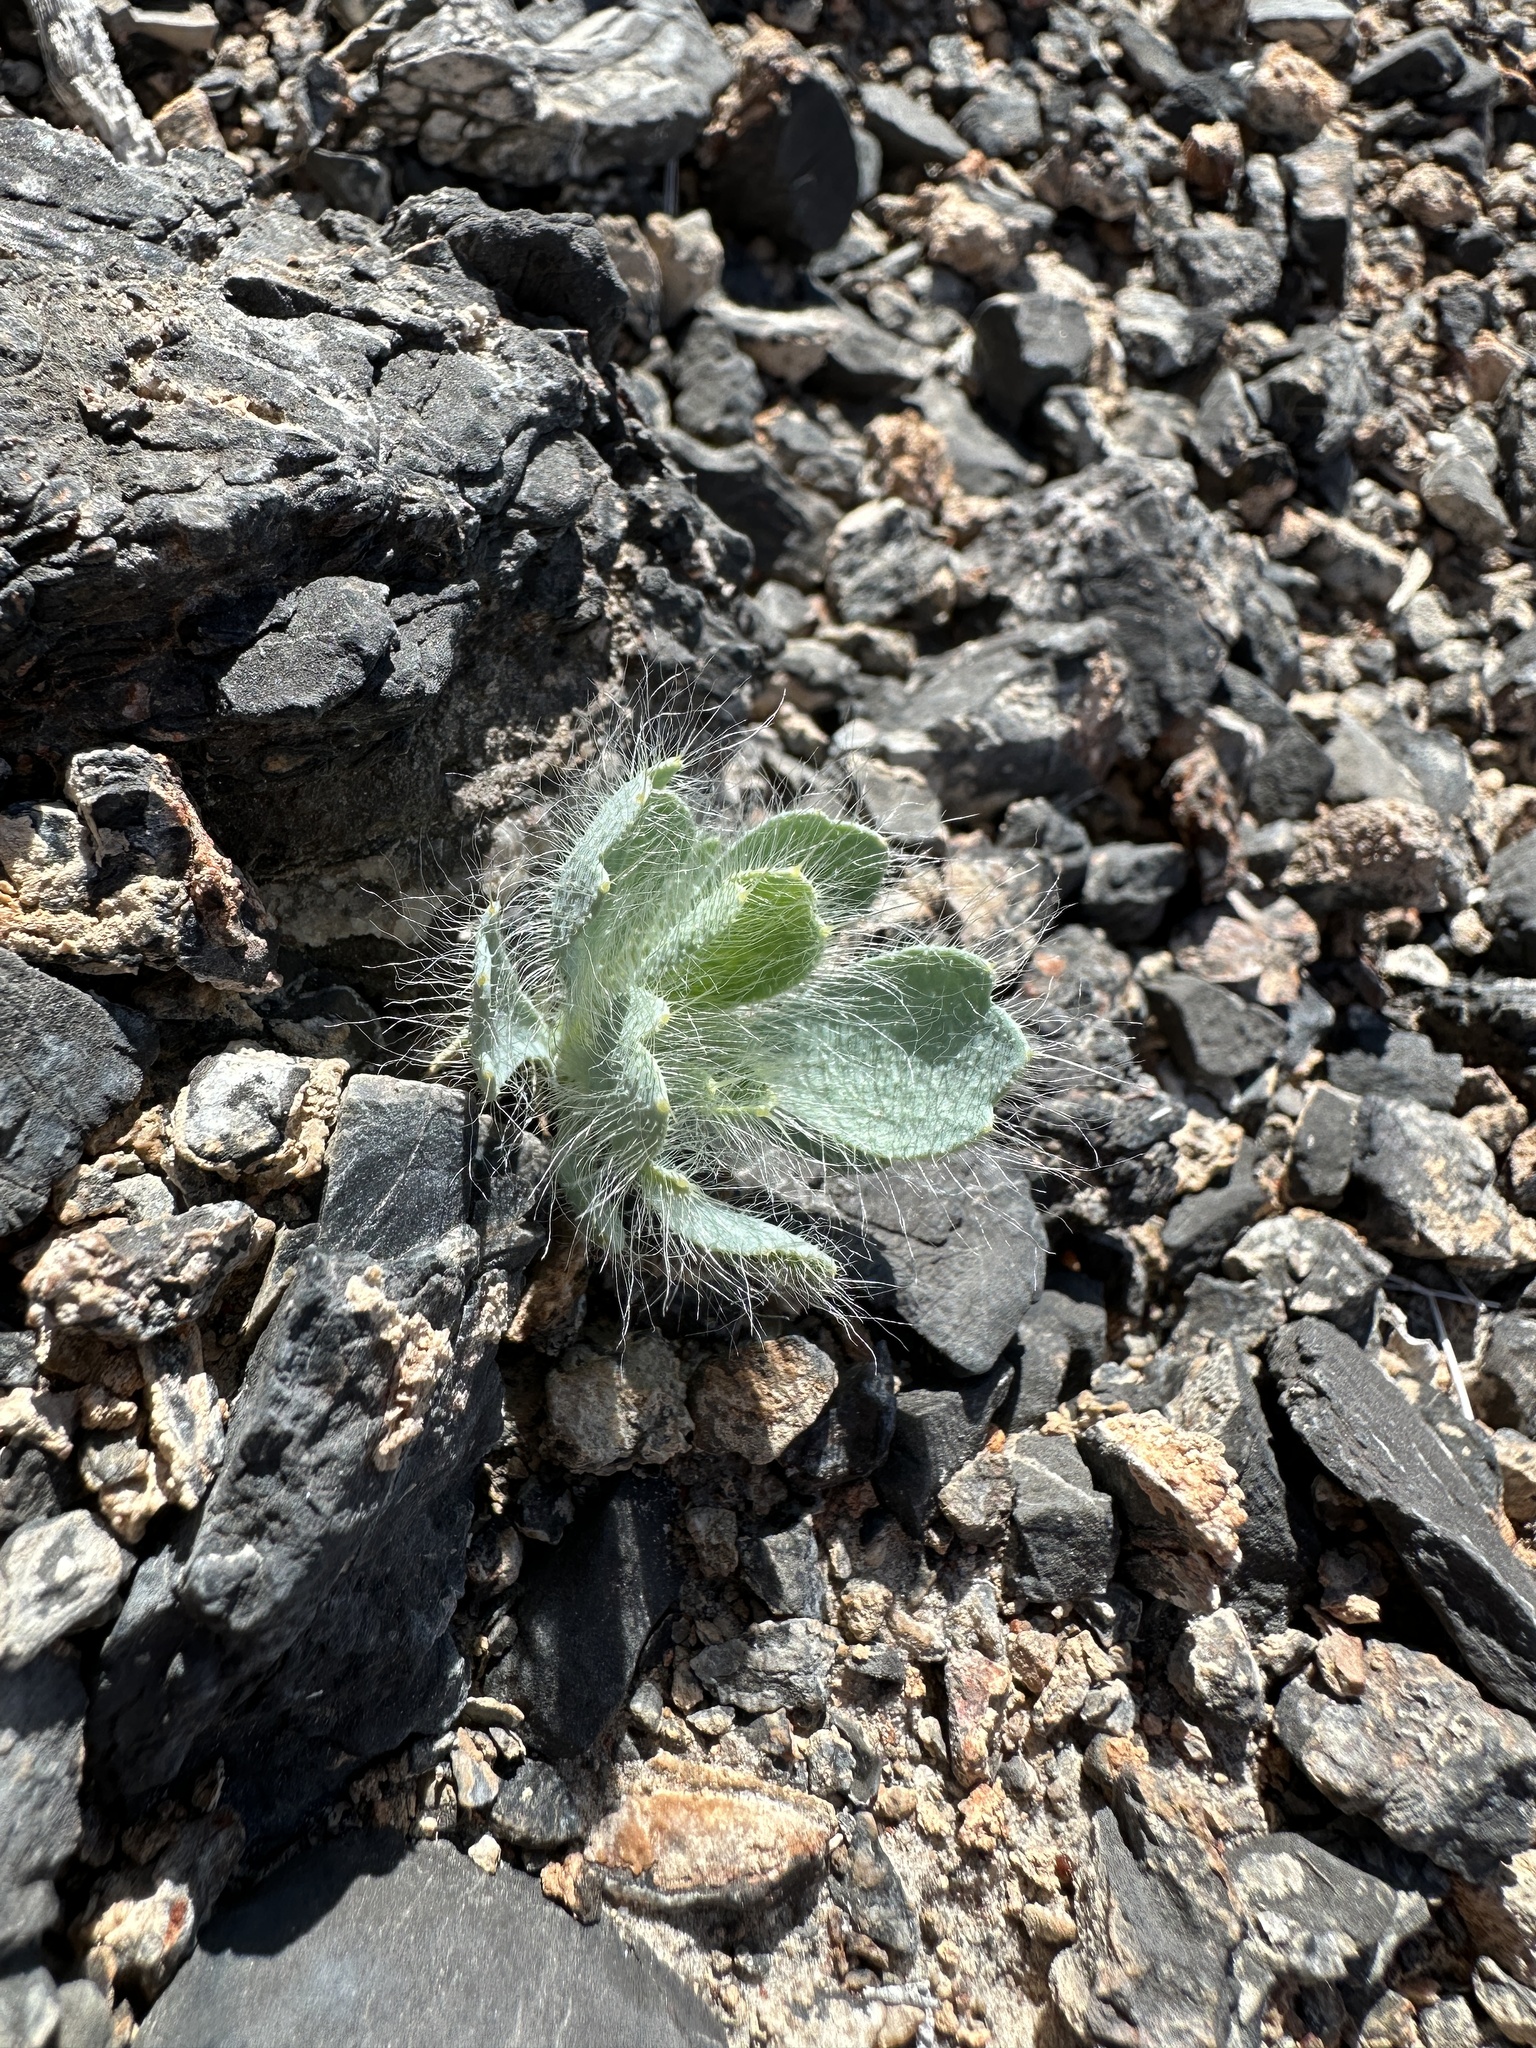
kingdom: Plantae
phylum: Tracheophyta
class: Magnoliopsida
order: Ranunculales
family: Papaveraceae
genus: Arctomecon
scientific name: Arctomecon merriamii
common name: White bear-poppy
